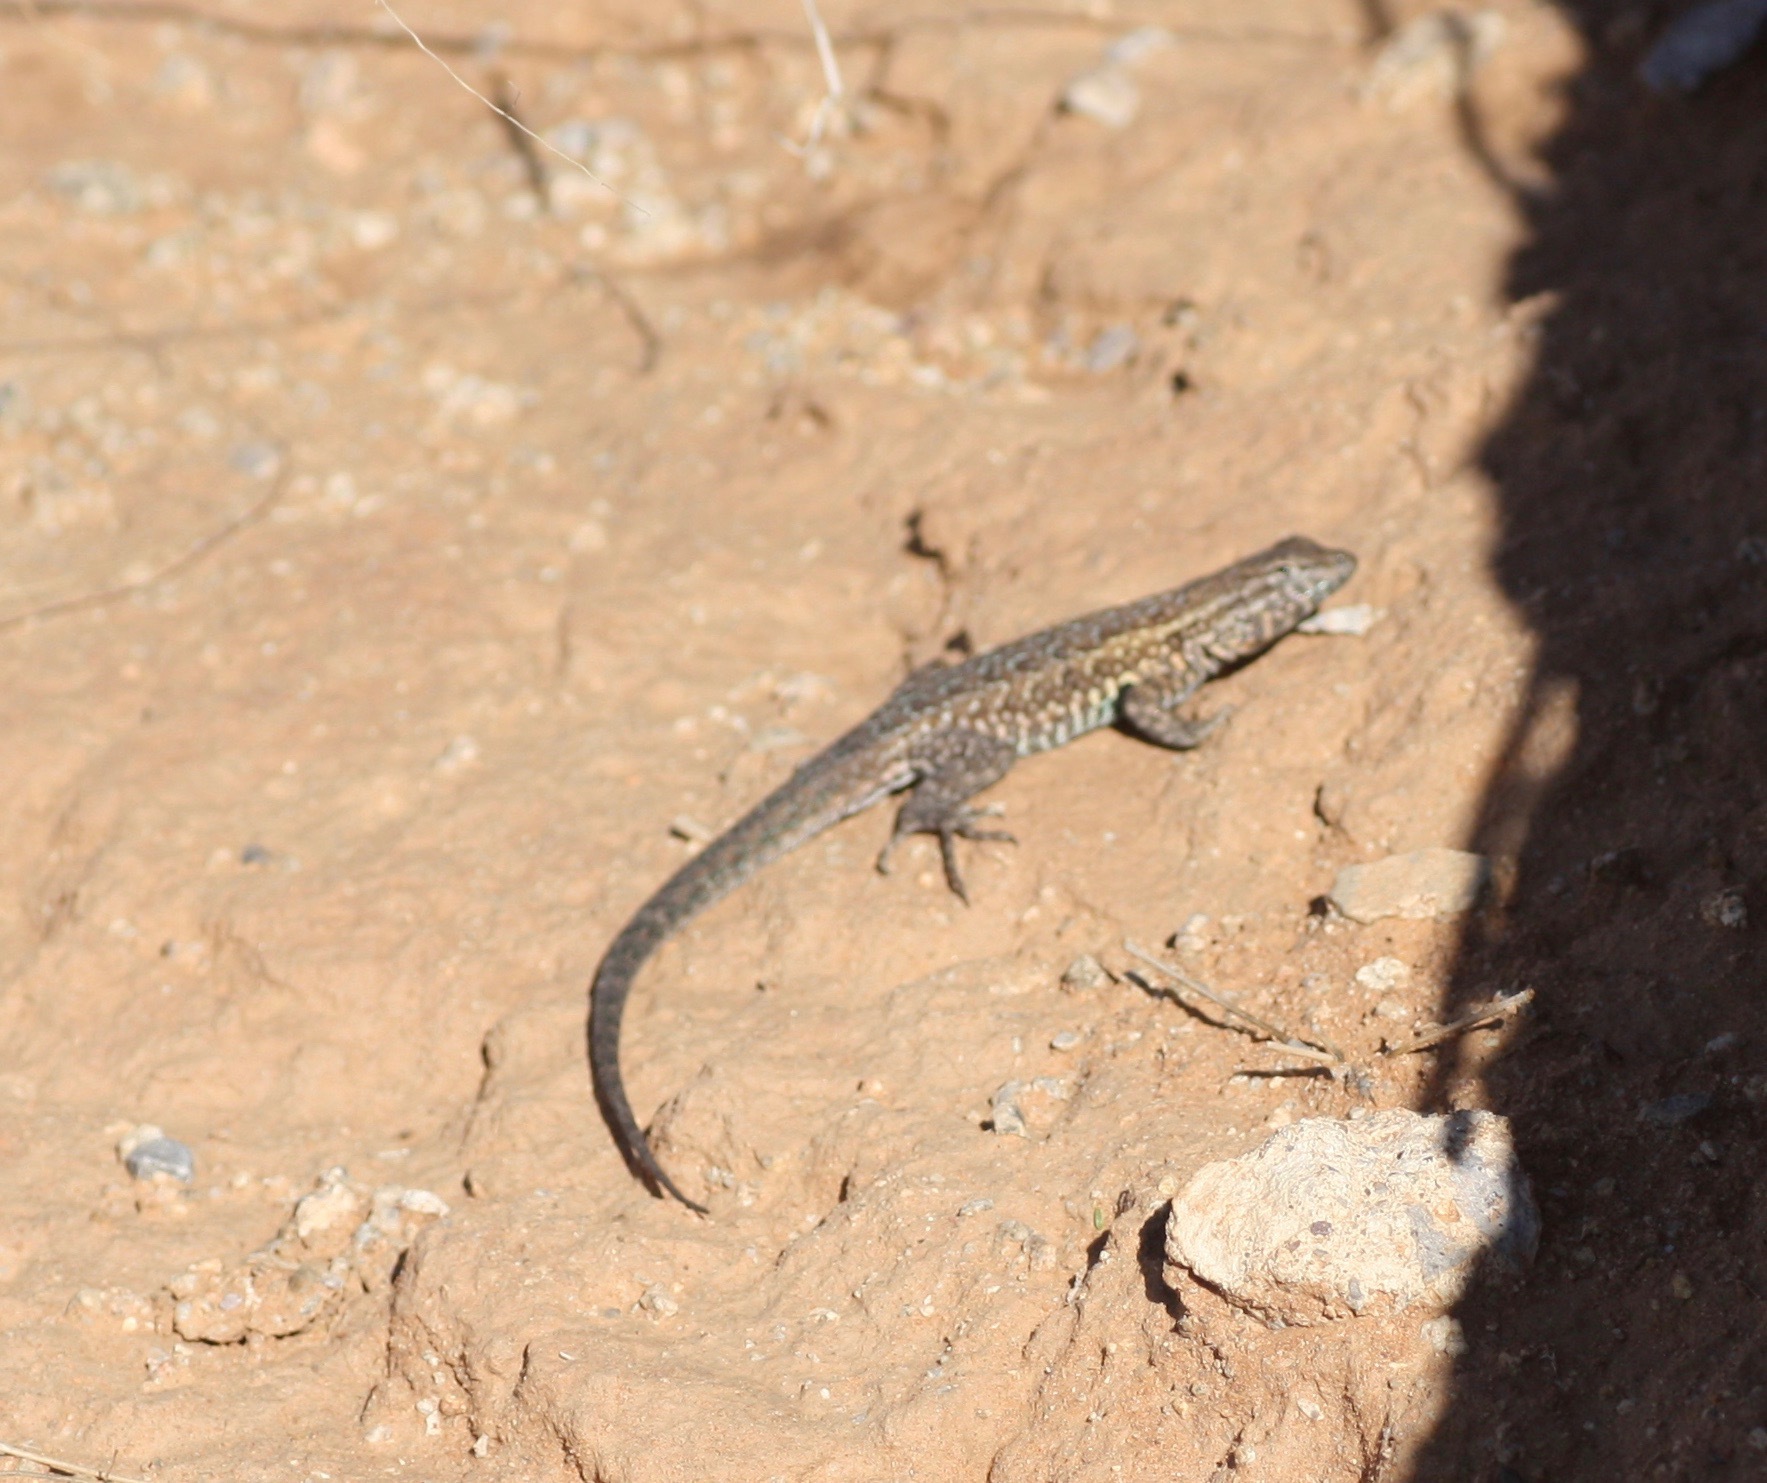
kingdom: Animalia
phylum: Chordata
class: Squamata
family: Phrynosomatidae
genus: Uta
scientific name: Uta stansburiana
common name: Side-blotched lizard
